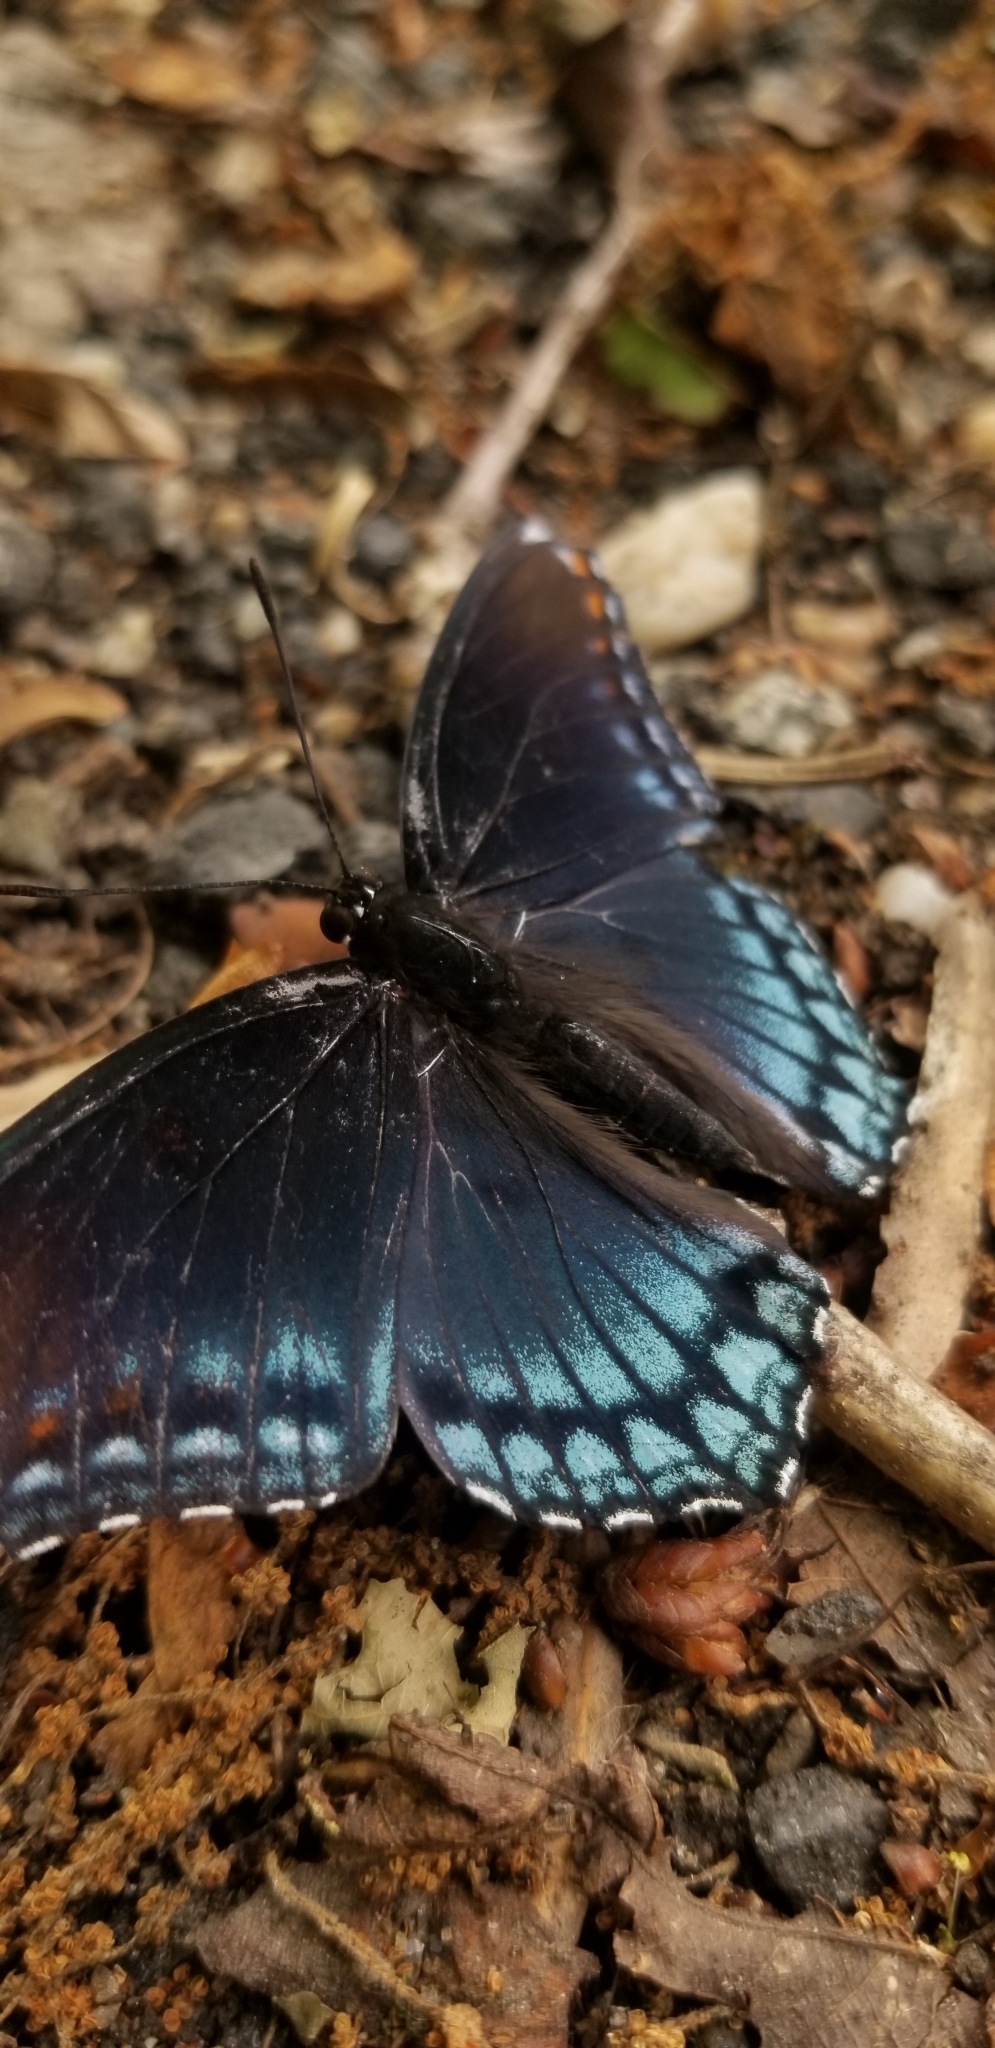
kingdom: Animalia
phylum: Arthropoda
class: Insecta
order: Lepidoptera
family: Nymphalidae
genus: Limenitis
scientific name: Limenitis arthemis
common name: Red-spotted admiral
